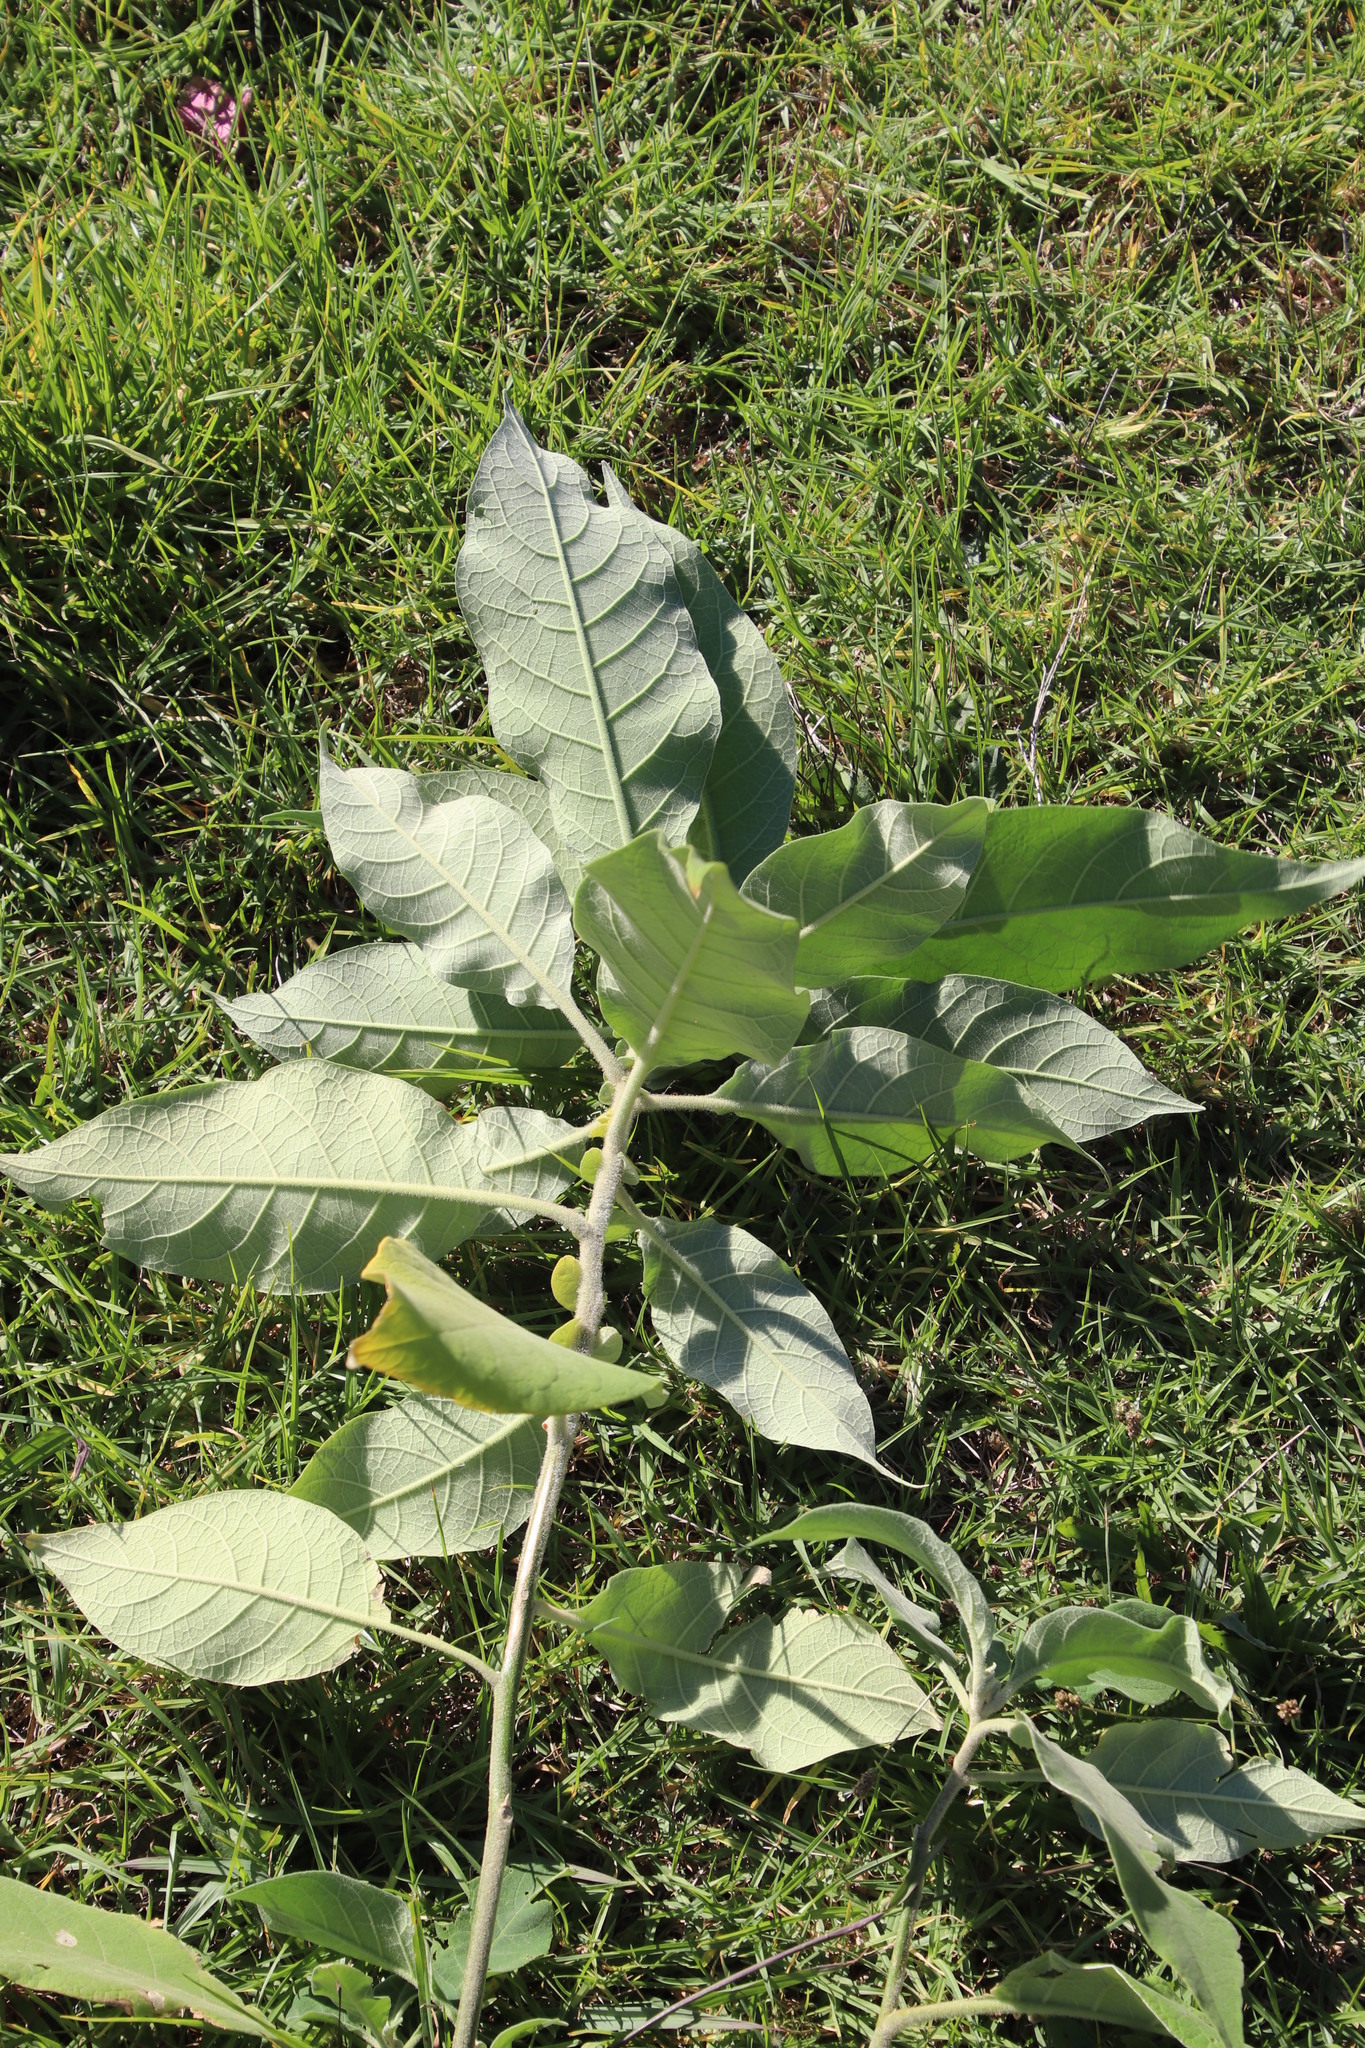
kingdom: Plantae
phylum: Tracheophyta
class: Magnoliopsida
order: Solanales
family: Solanaceae
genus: Solanum
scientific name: Solanum mauritianum
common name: Earleaf nightshade
